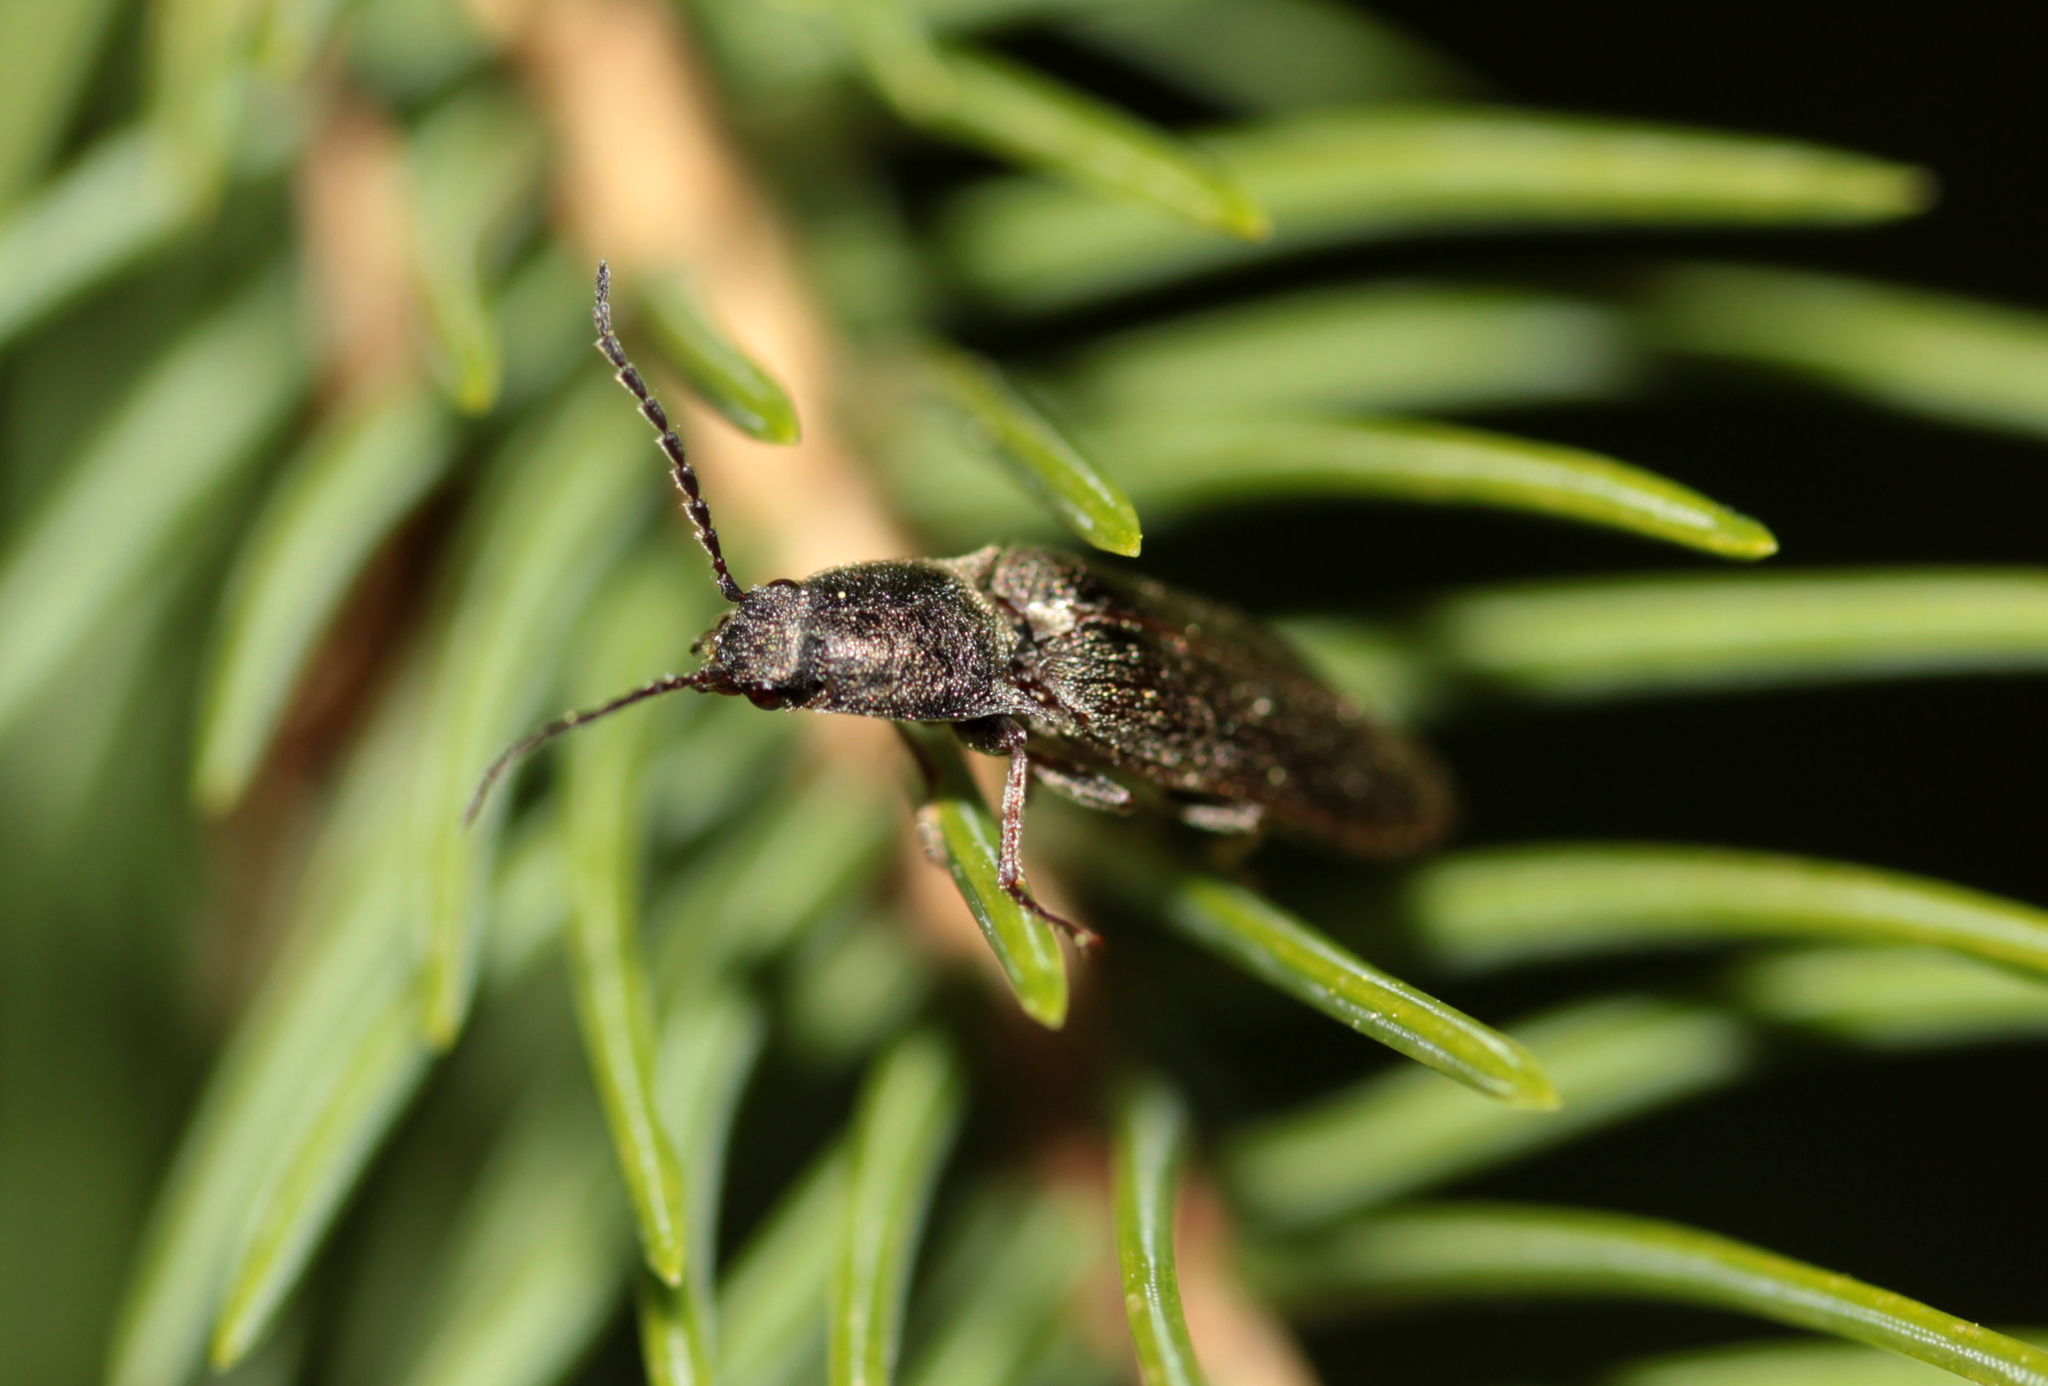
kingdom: Animalia
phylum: Arthropoda
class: Insecta
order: Coleoptera
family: Elateridae
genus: Sylvanelater
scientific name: Sylvanelater cylindriformis
